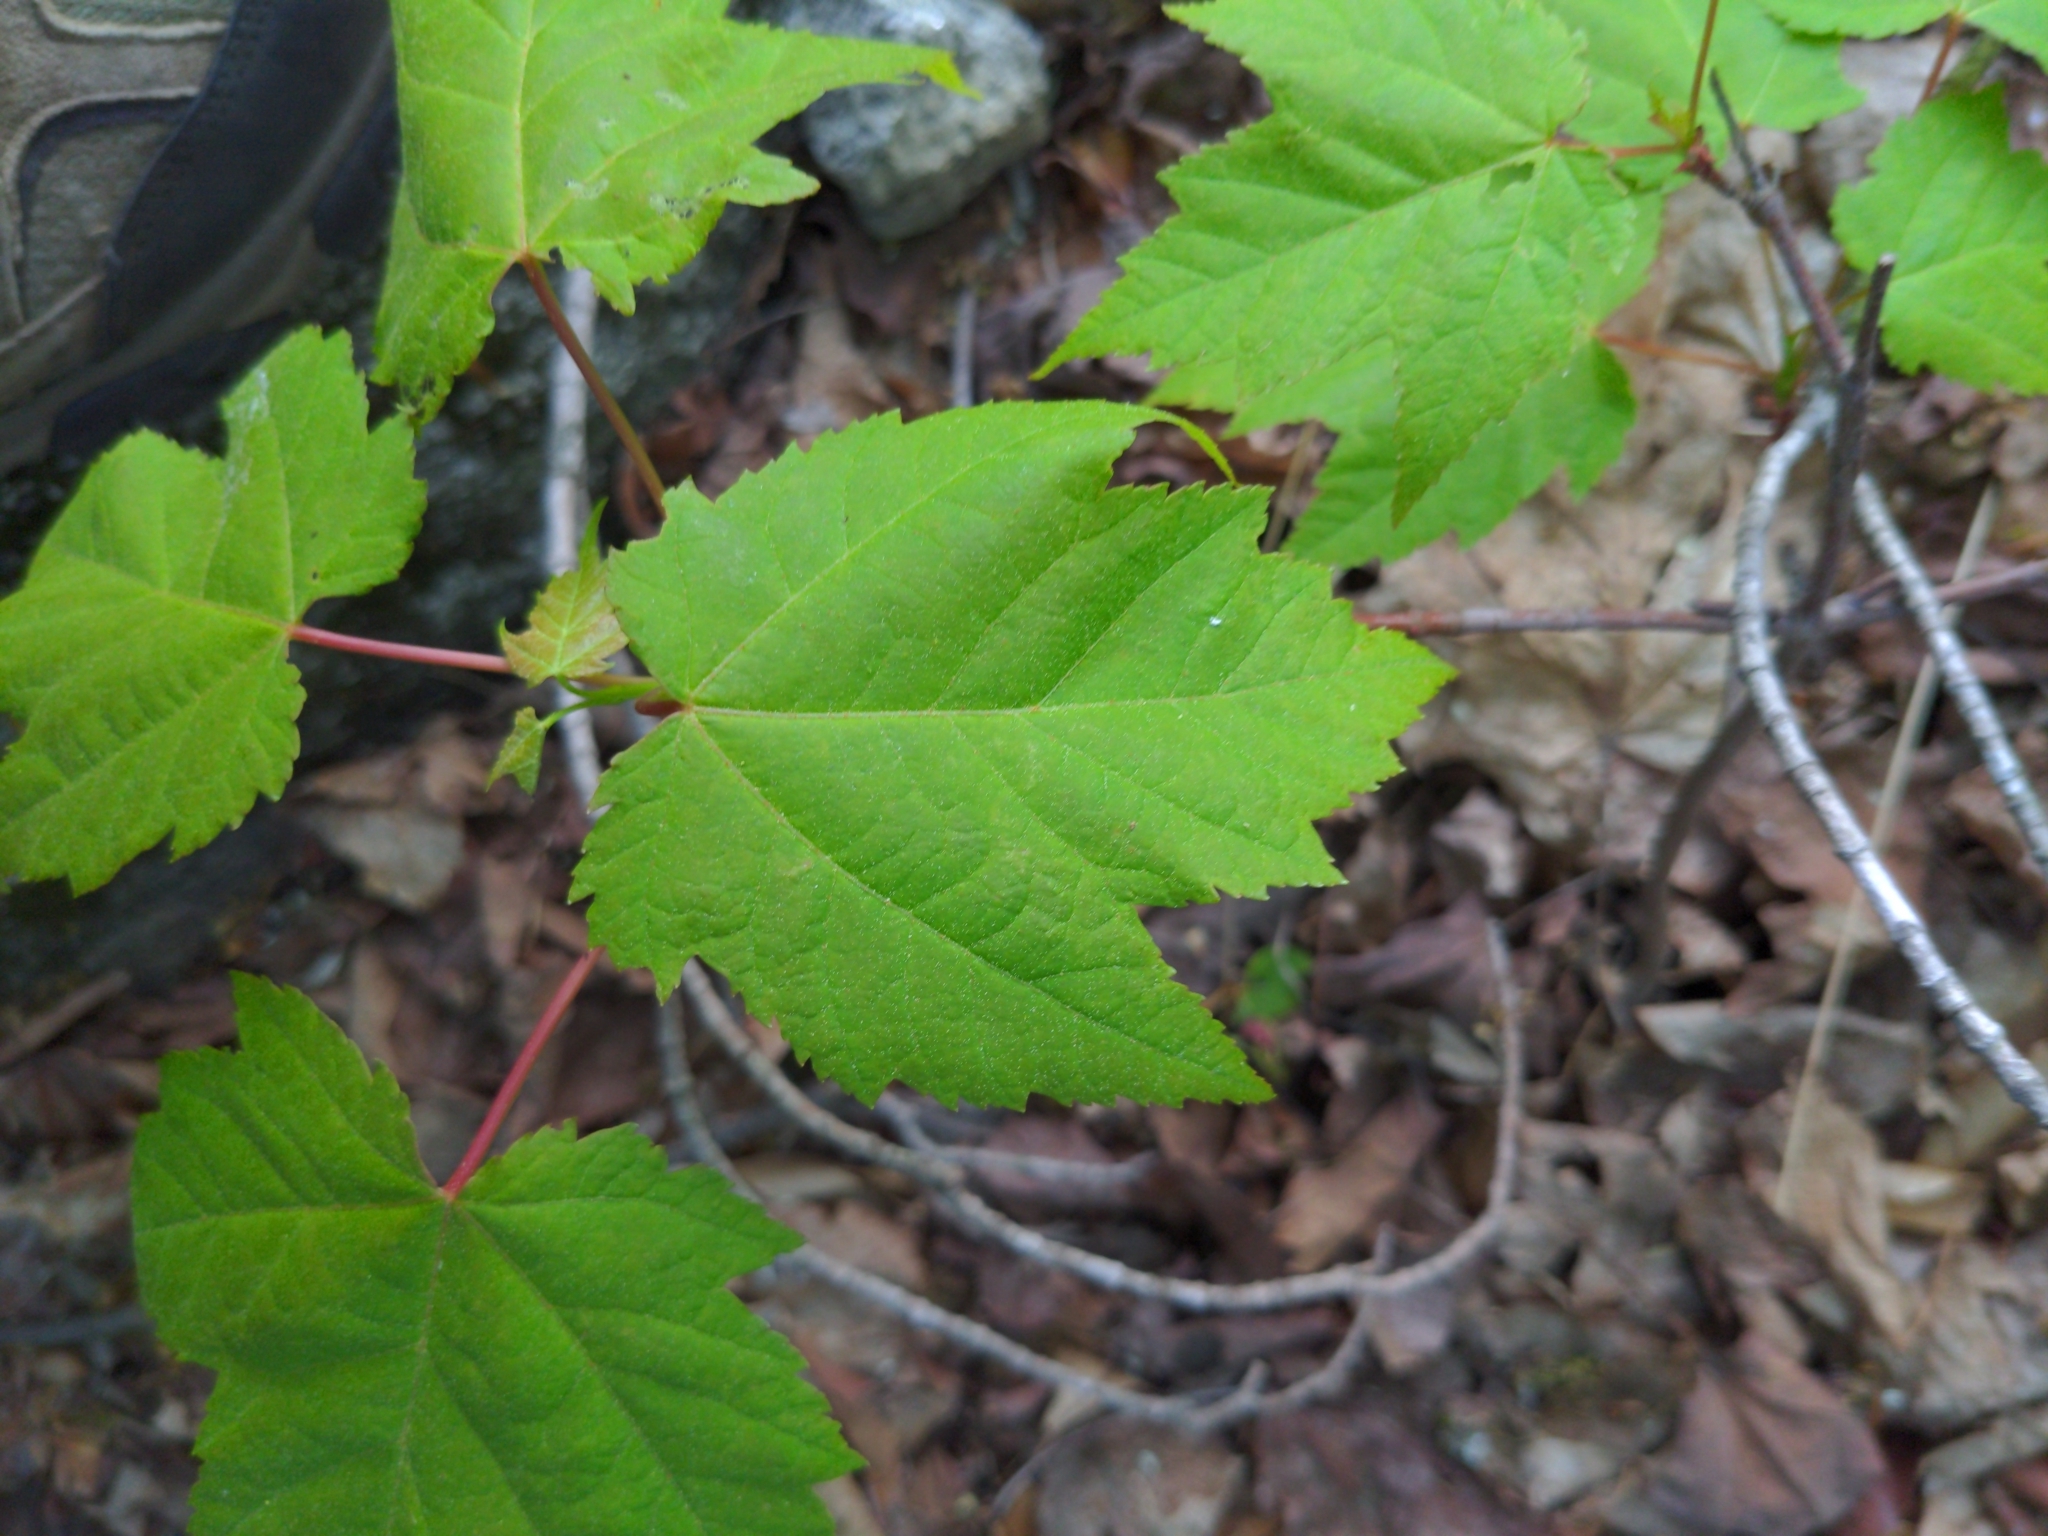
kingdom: Plantae
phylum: Tracheophyta
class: Magnoliopsida
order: Sapindales
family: Sapindaceae
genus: Acer
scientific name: Acer rubrum
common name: Red maple
